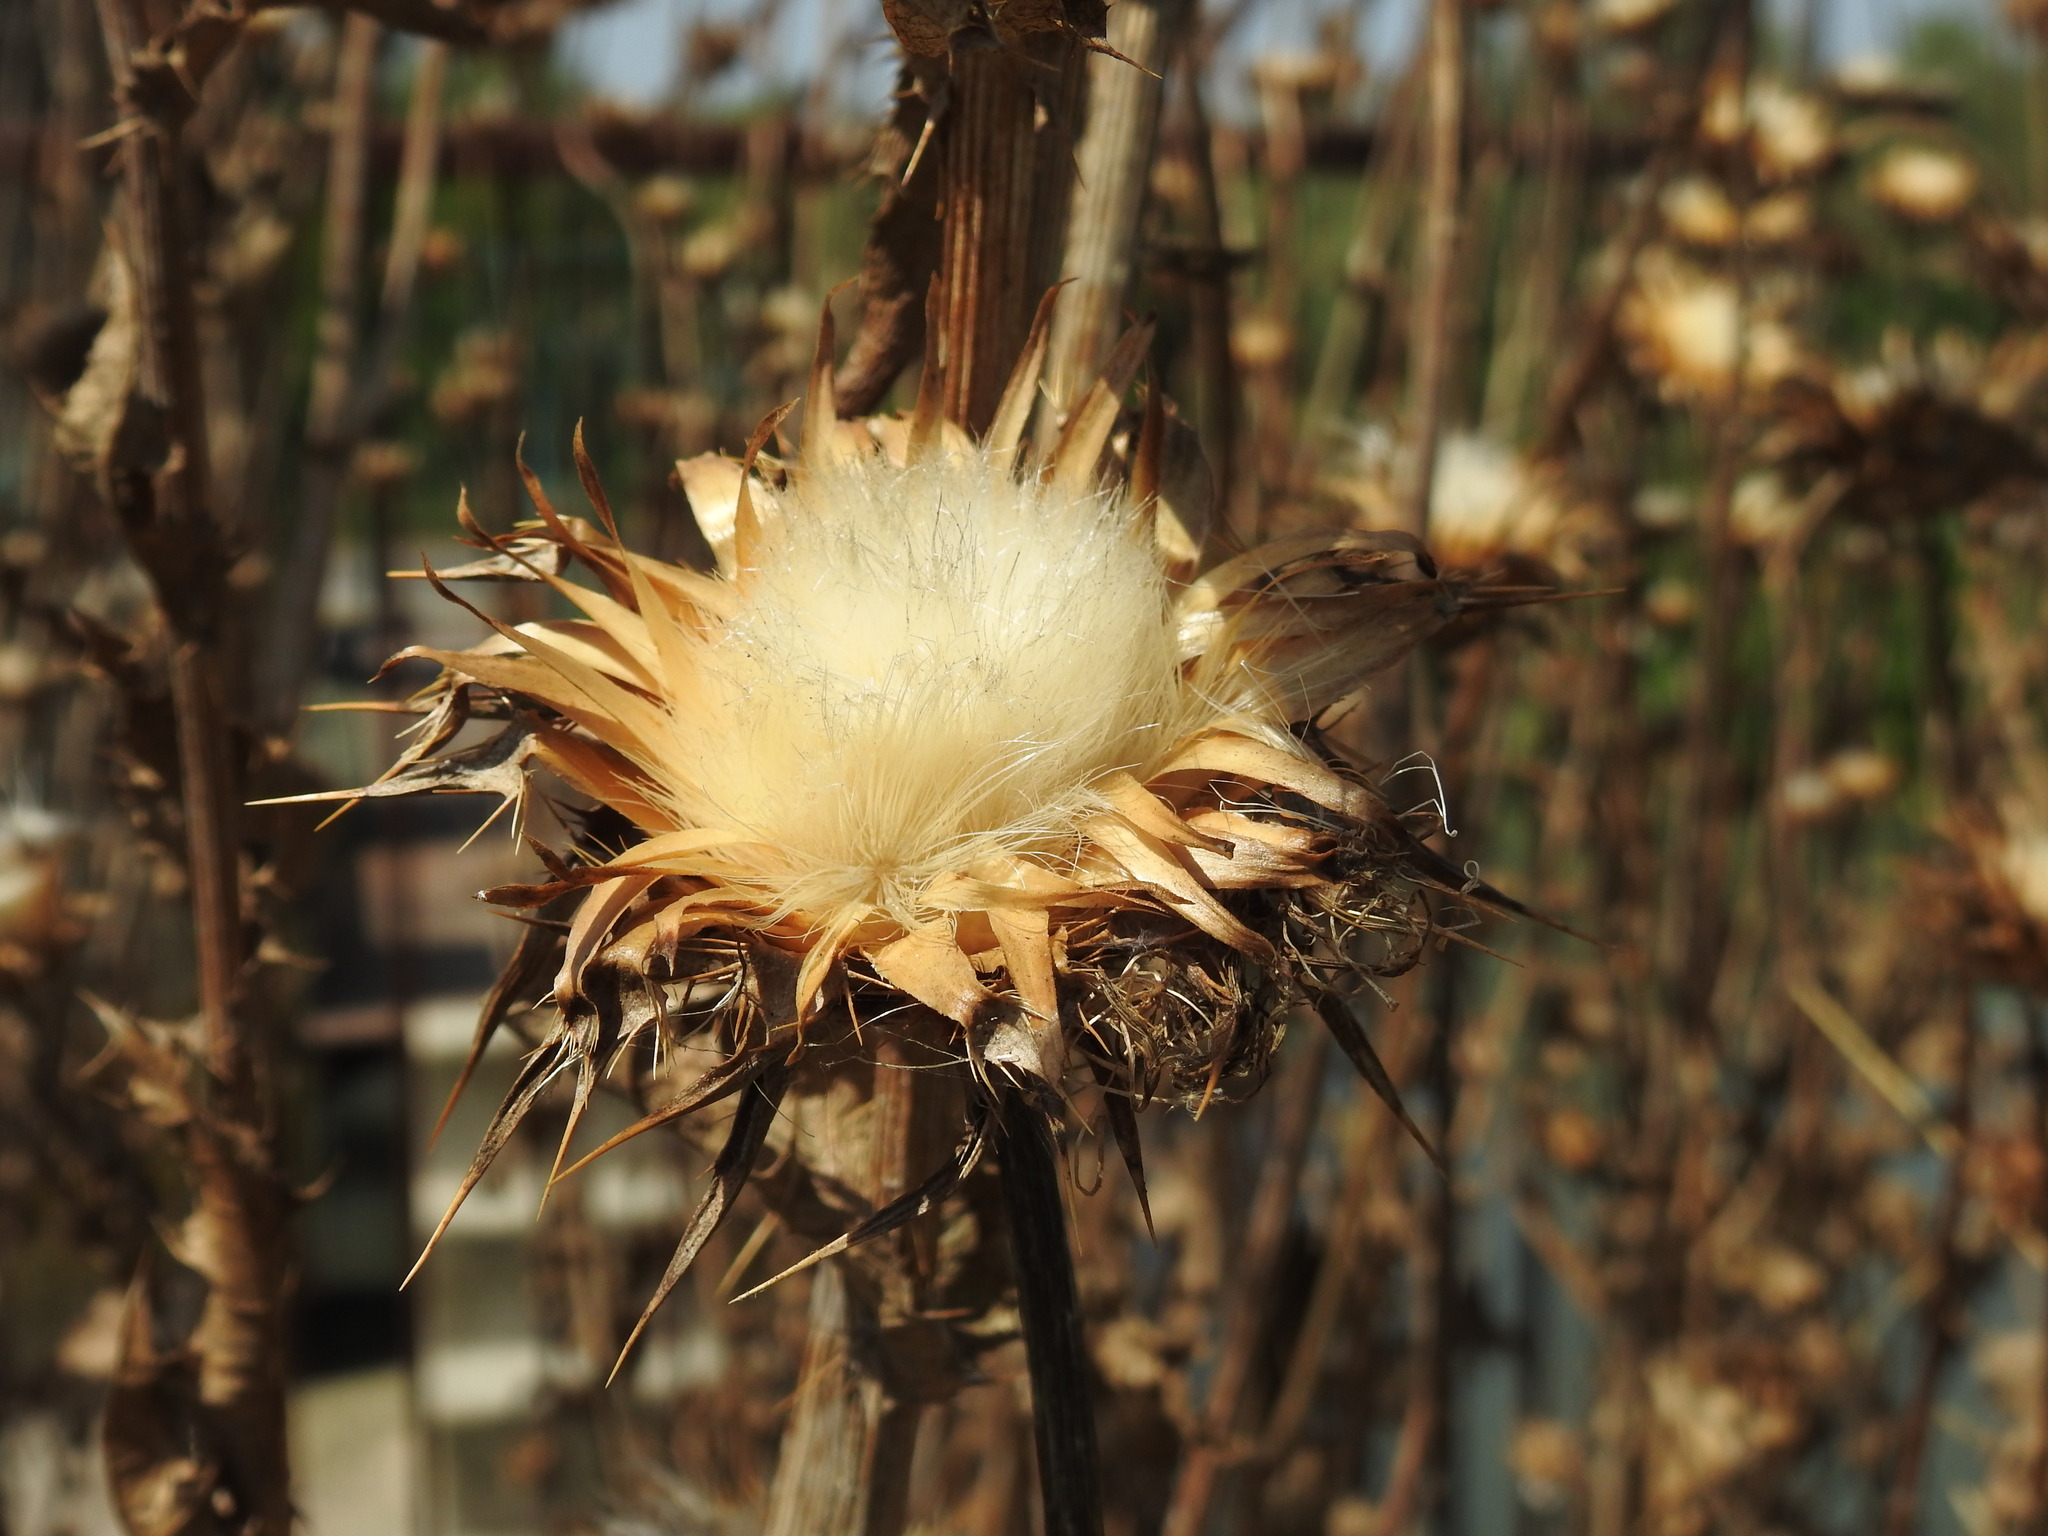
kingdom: Plantae
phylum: Tracheophyta
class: Magnoliopsida
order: Asterales
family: Asteraceae
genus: Silybum
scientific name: Silybum marianum
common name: Milk thistle
